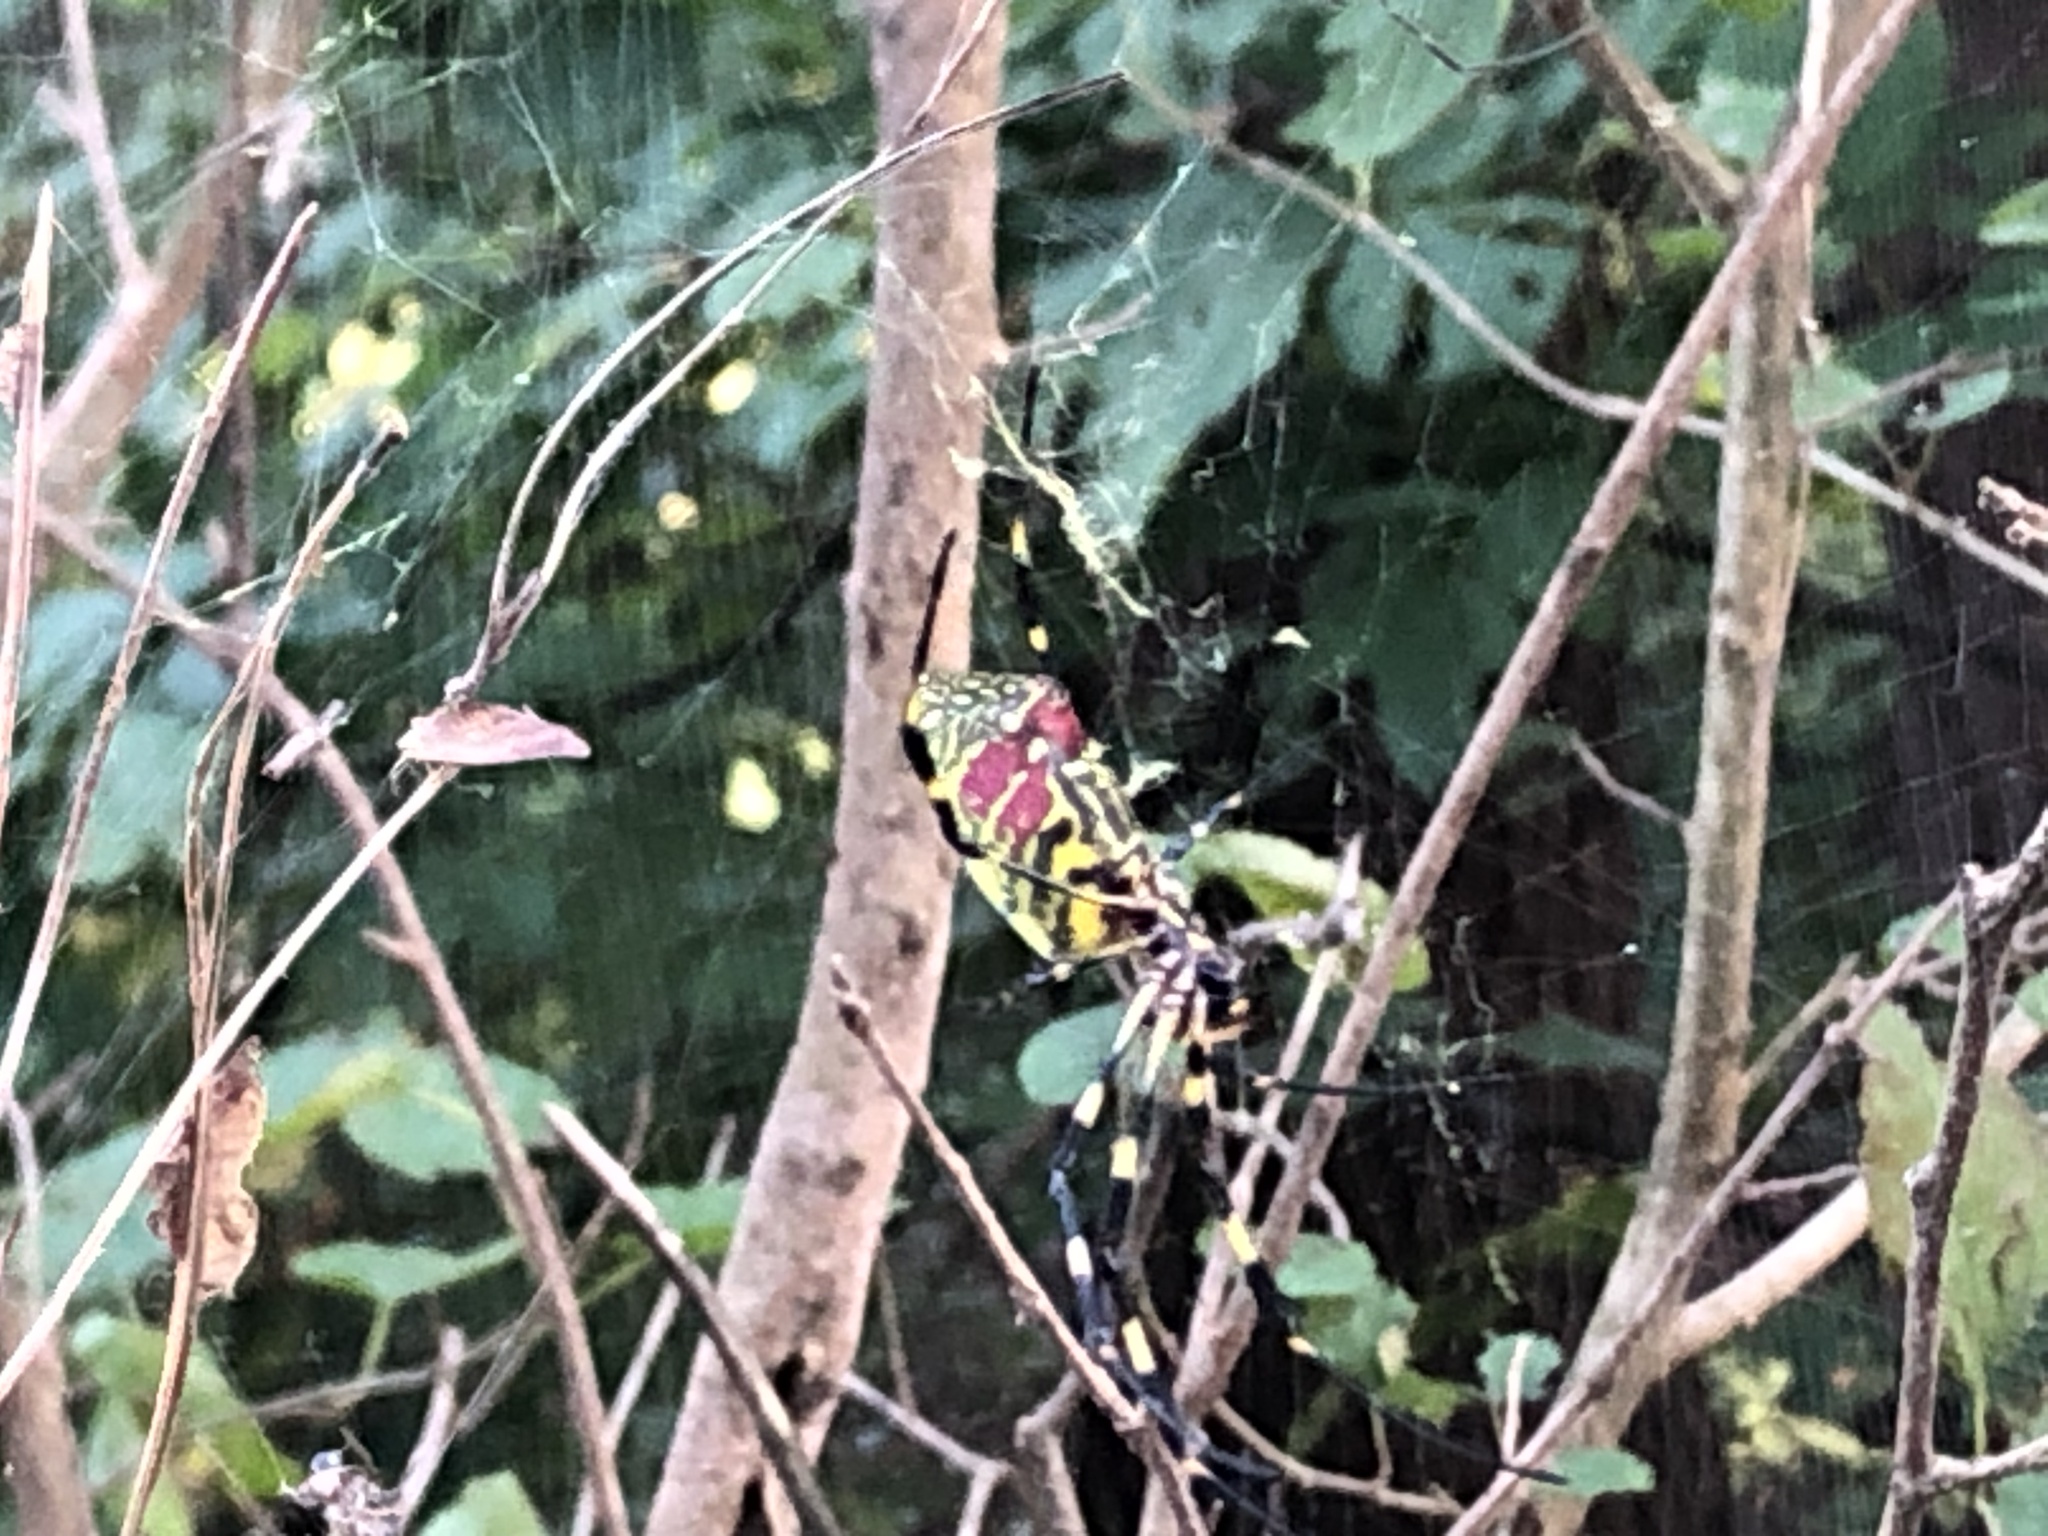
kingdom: Animalia
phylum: Arthropoda
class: Arachnida
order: Araneae
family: Araneidae
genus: Trichonephila
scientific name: Trichonephila clavata
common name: Jorō spider
